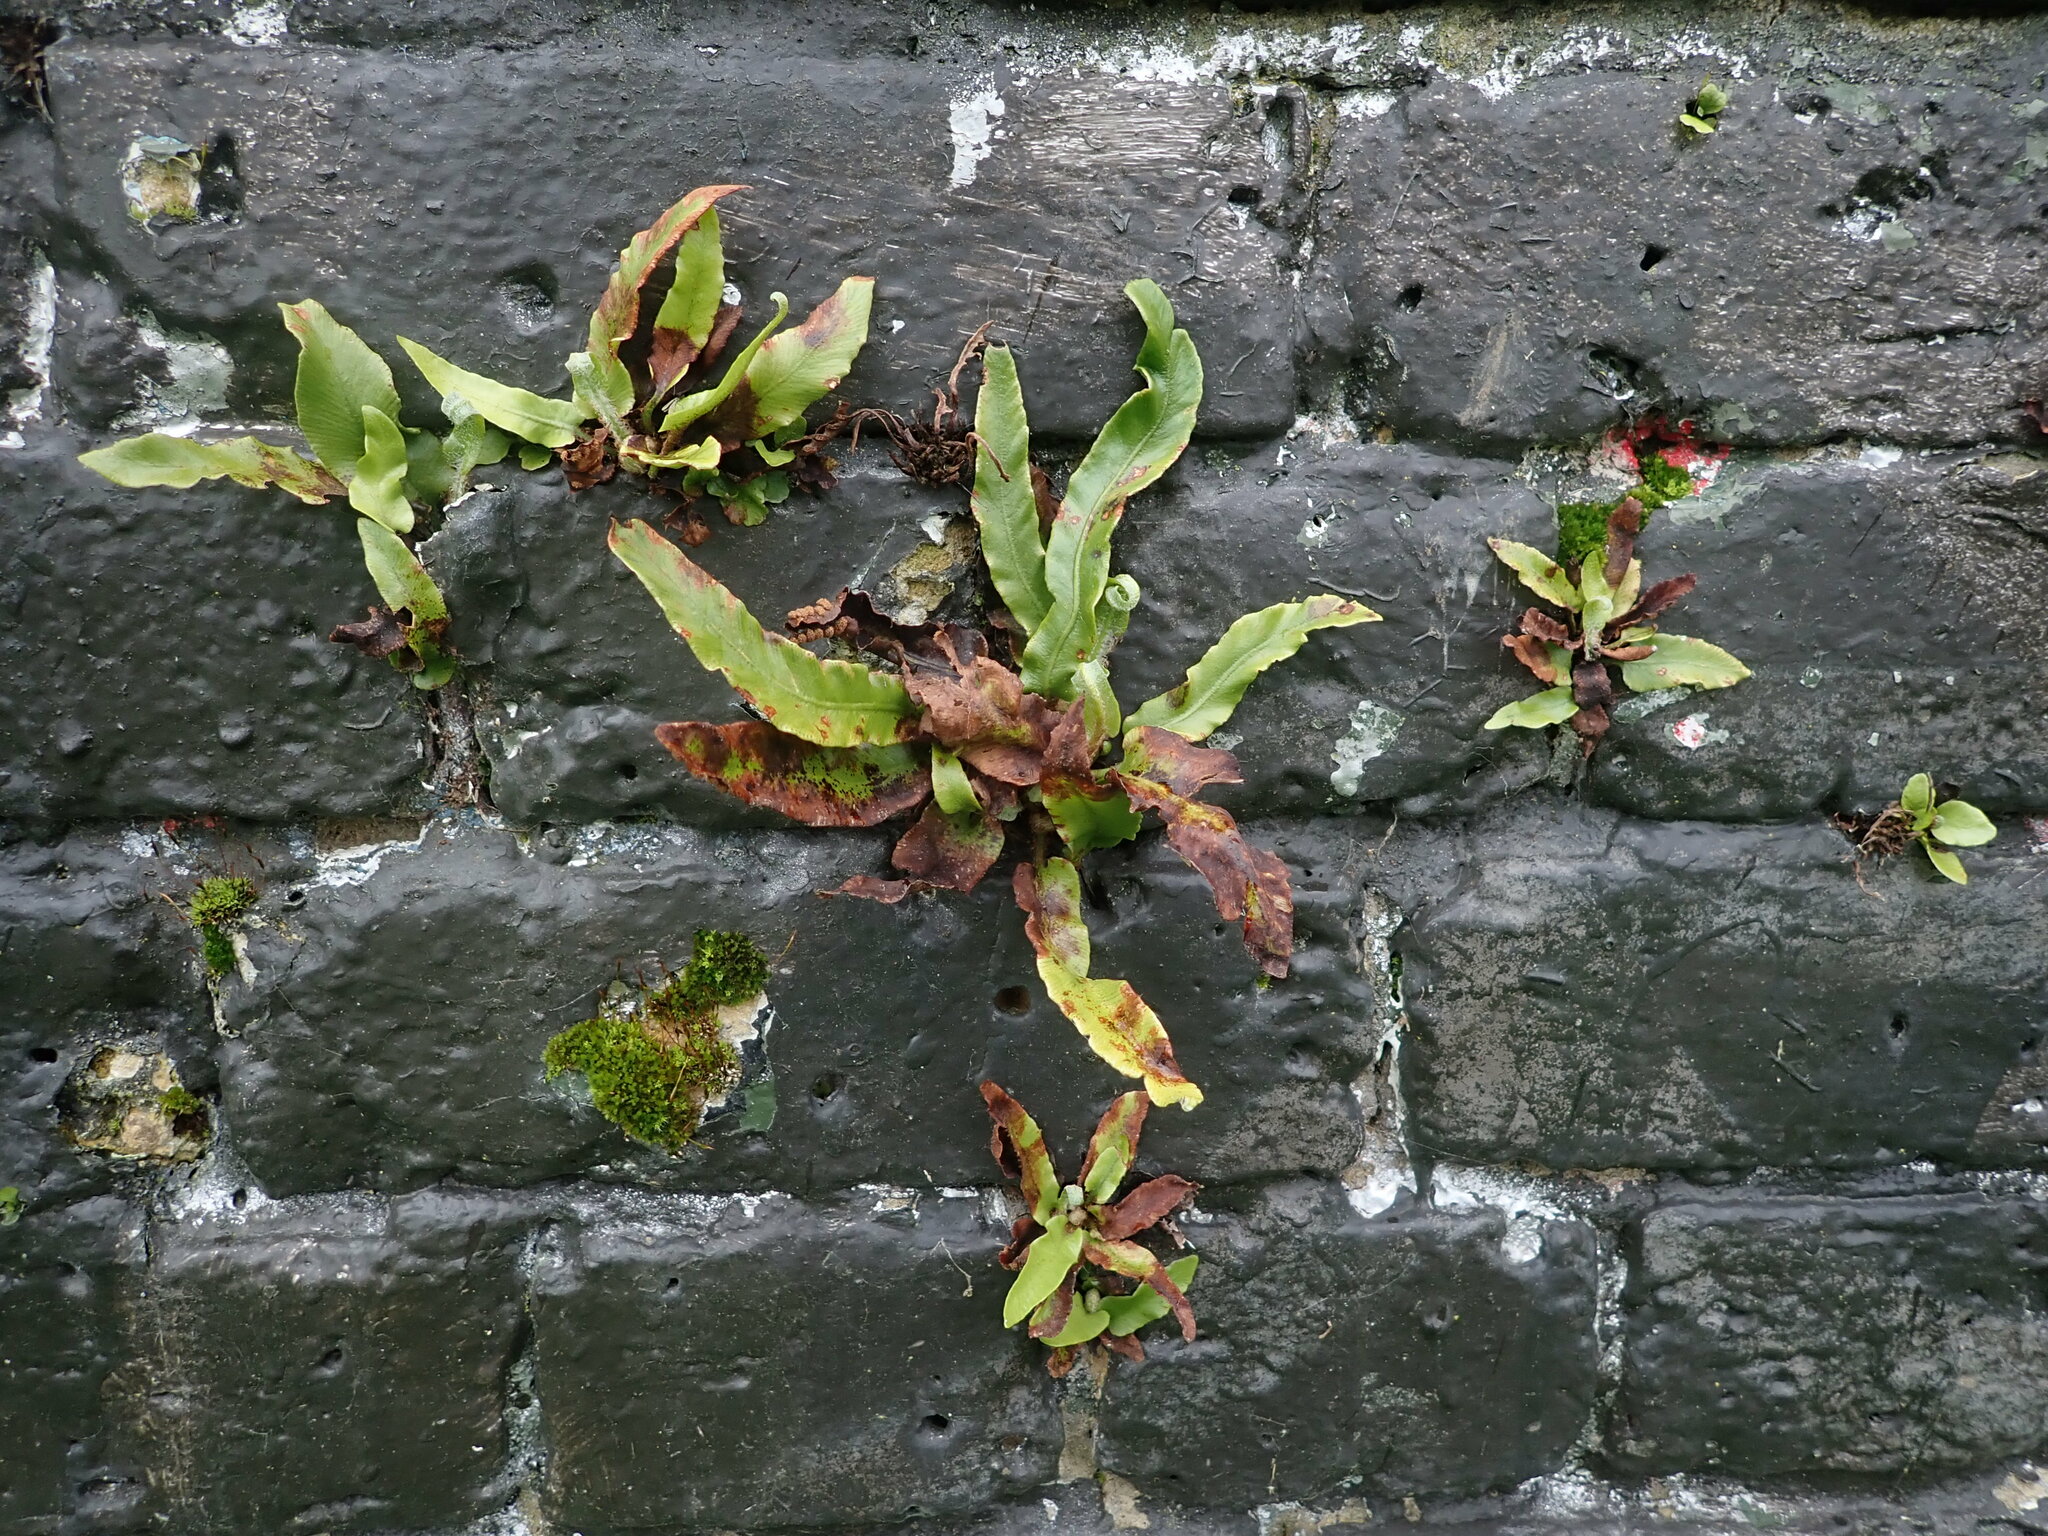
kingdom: Plantae
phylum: Tracheophyta
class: Polypodiopsida
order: Polypodiales
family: Aspleniaceae
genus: Asplenium
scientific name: Asplenium scolopendrium
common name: Hart's-tongue fern
